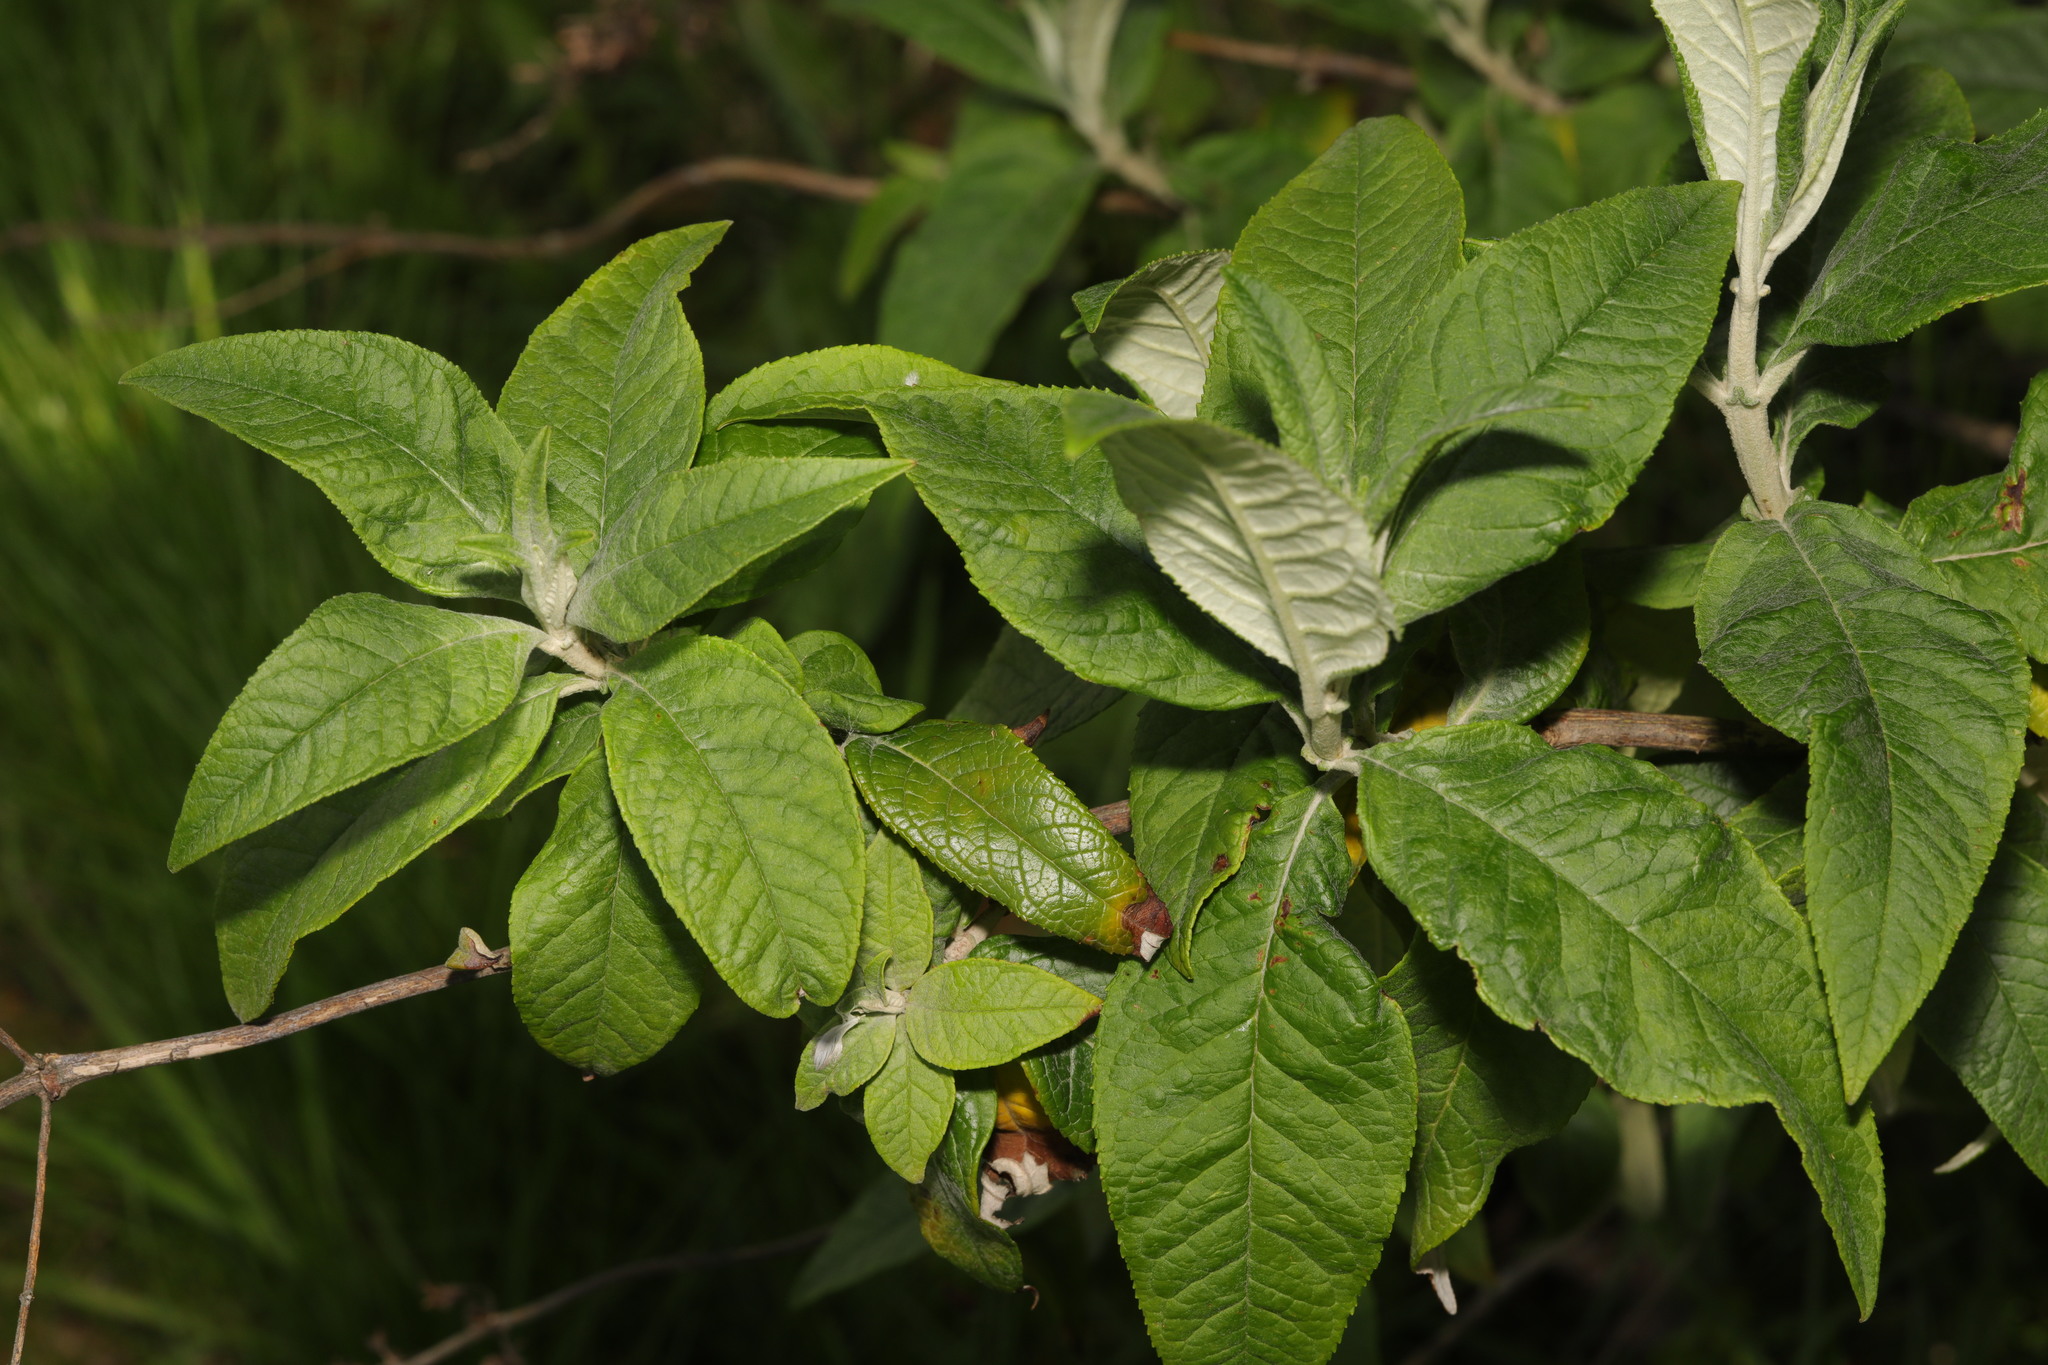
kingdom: Plantae
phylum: Tracheophyta
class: Magnoliopsida
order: Lamiales
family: Scrophulariaceae
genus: Buddleja
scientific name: Buddleja davidii
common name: Butterfly-bush
